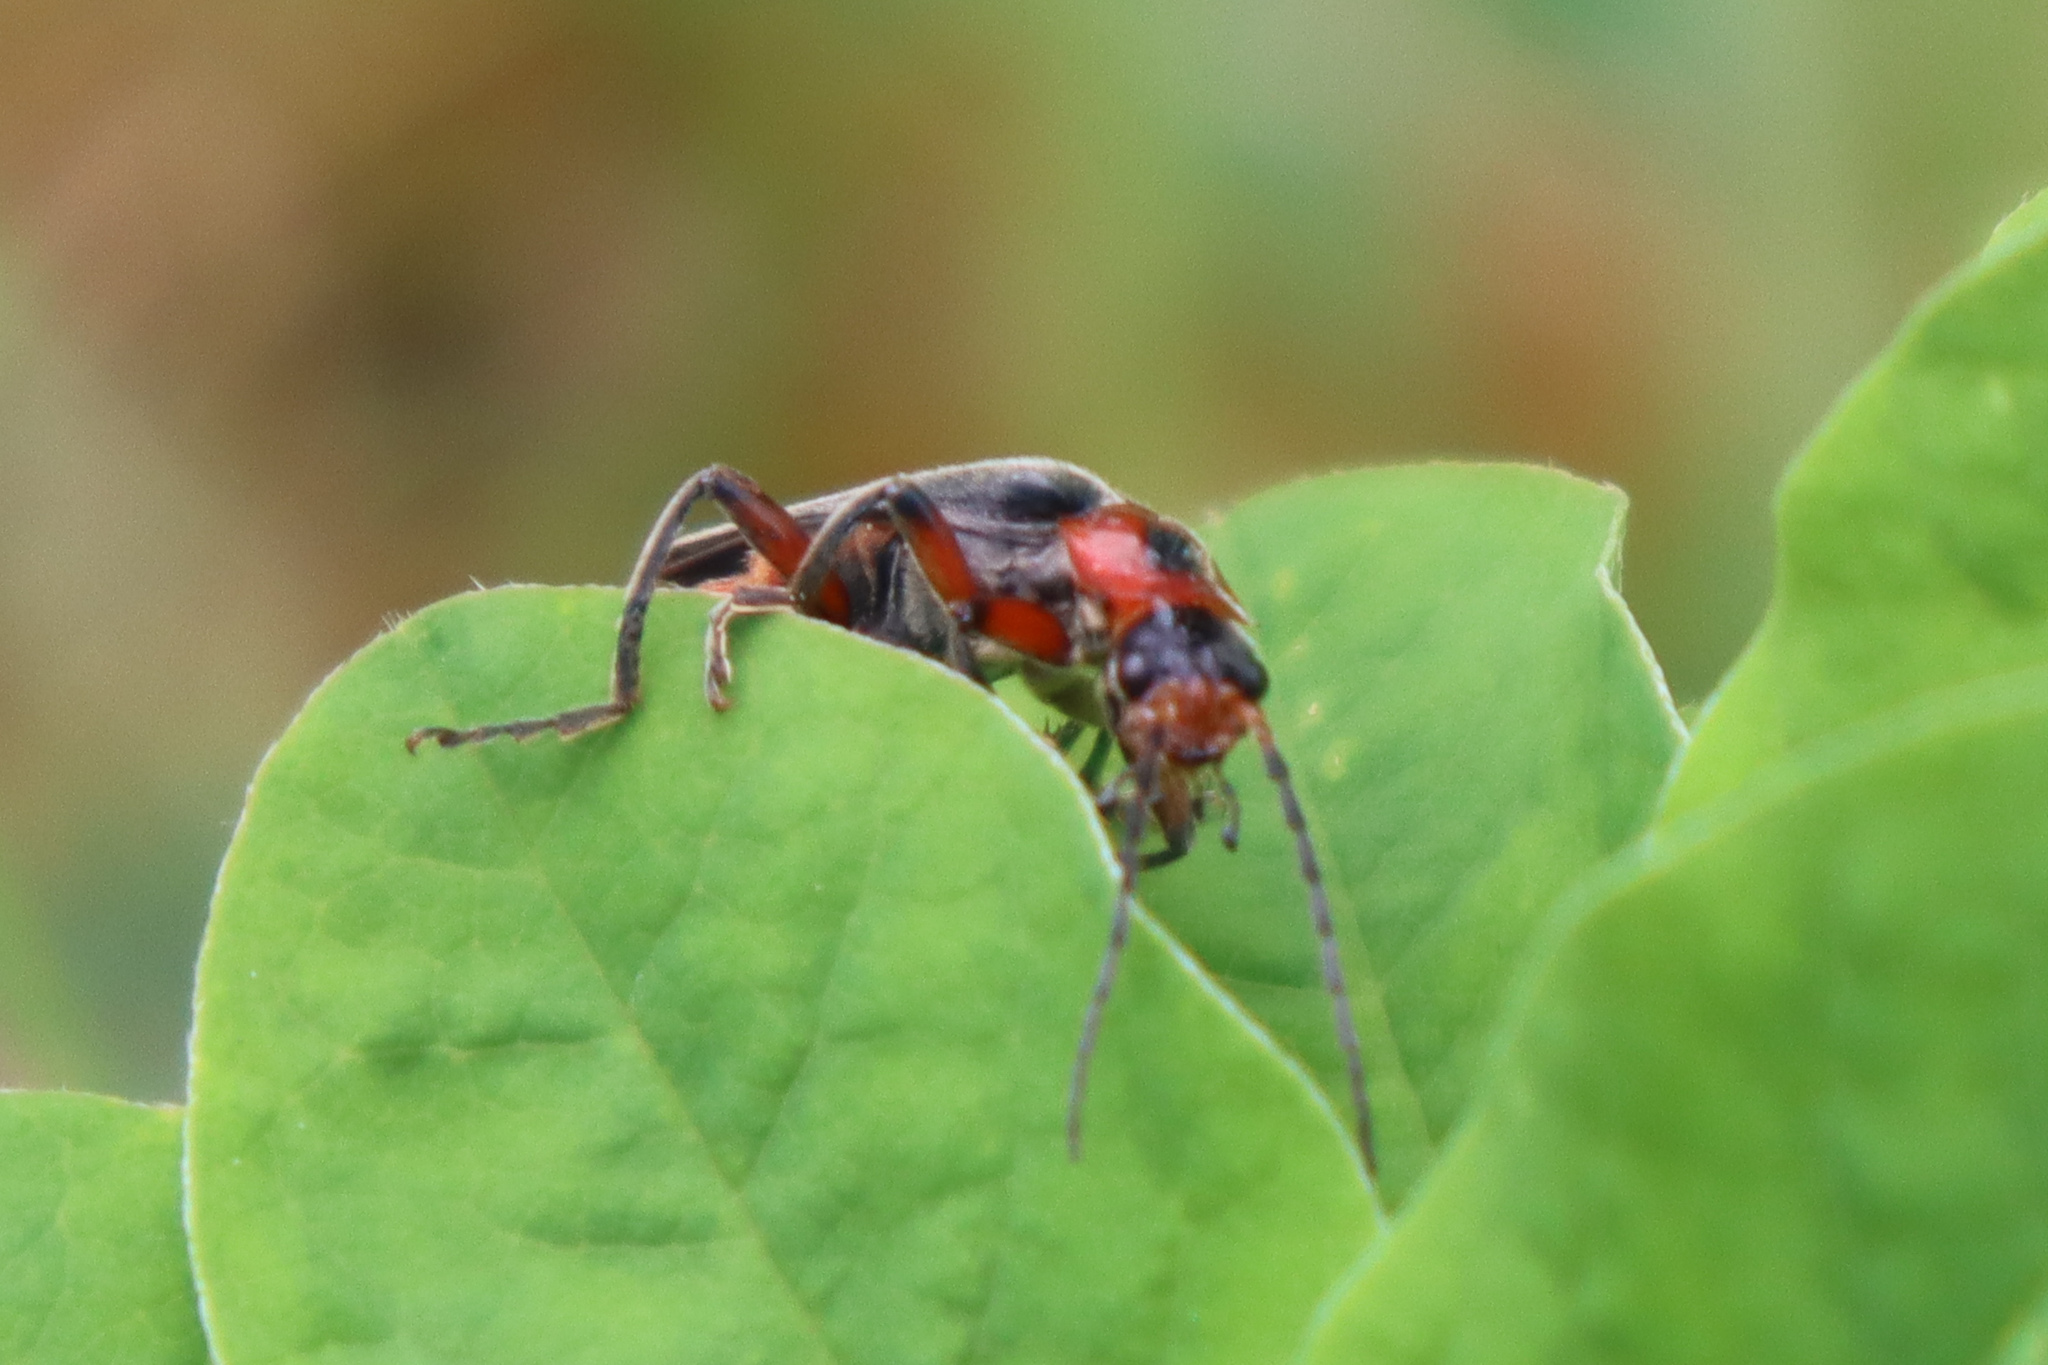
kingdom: Animalia
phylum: Arthropoda
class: Insecta
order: Coleoptera
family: Cantharidae
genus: Cantharis
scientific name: Cantharis rustica
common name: Soldier beetle
